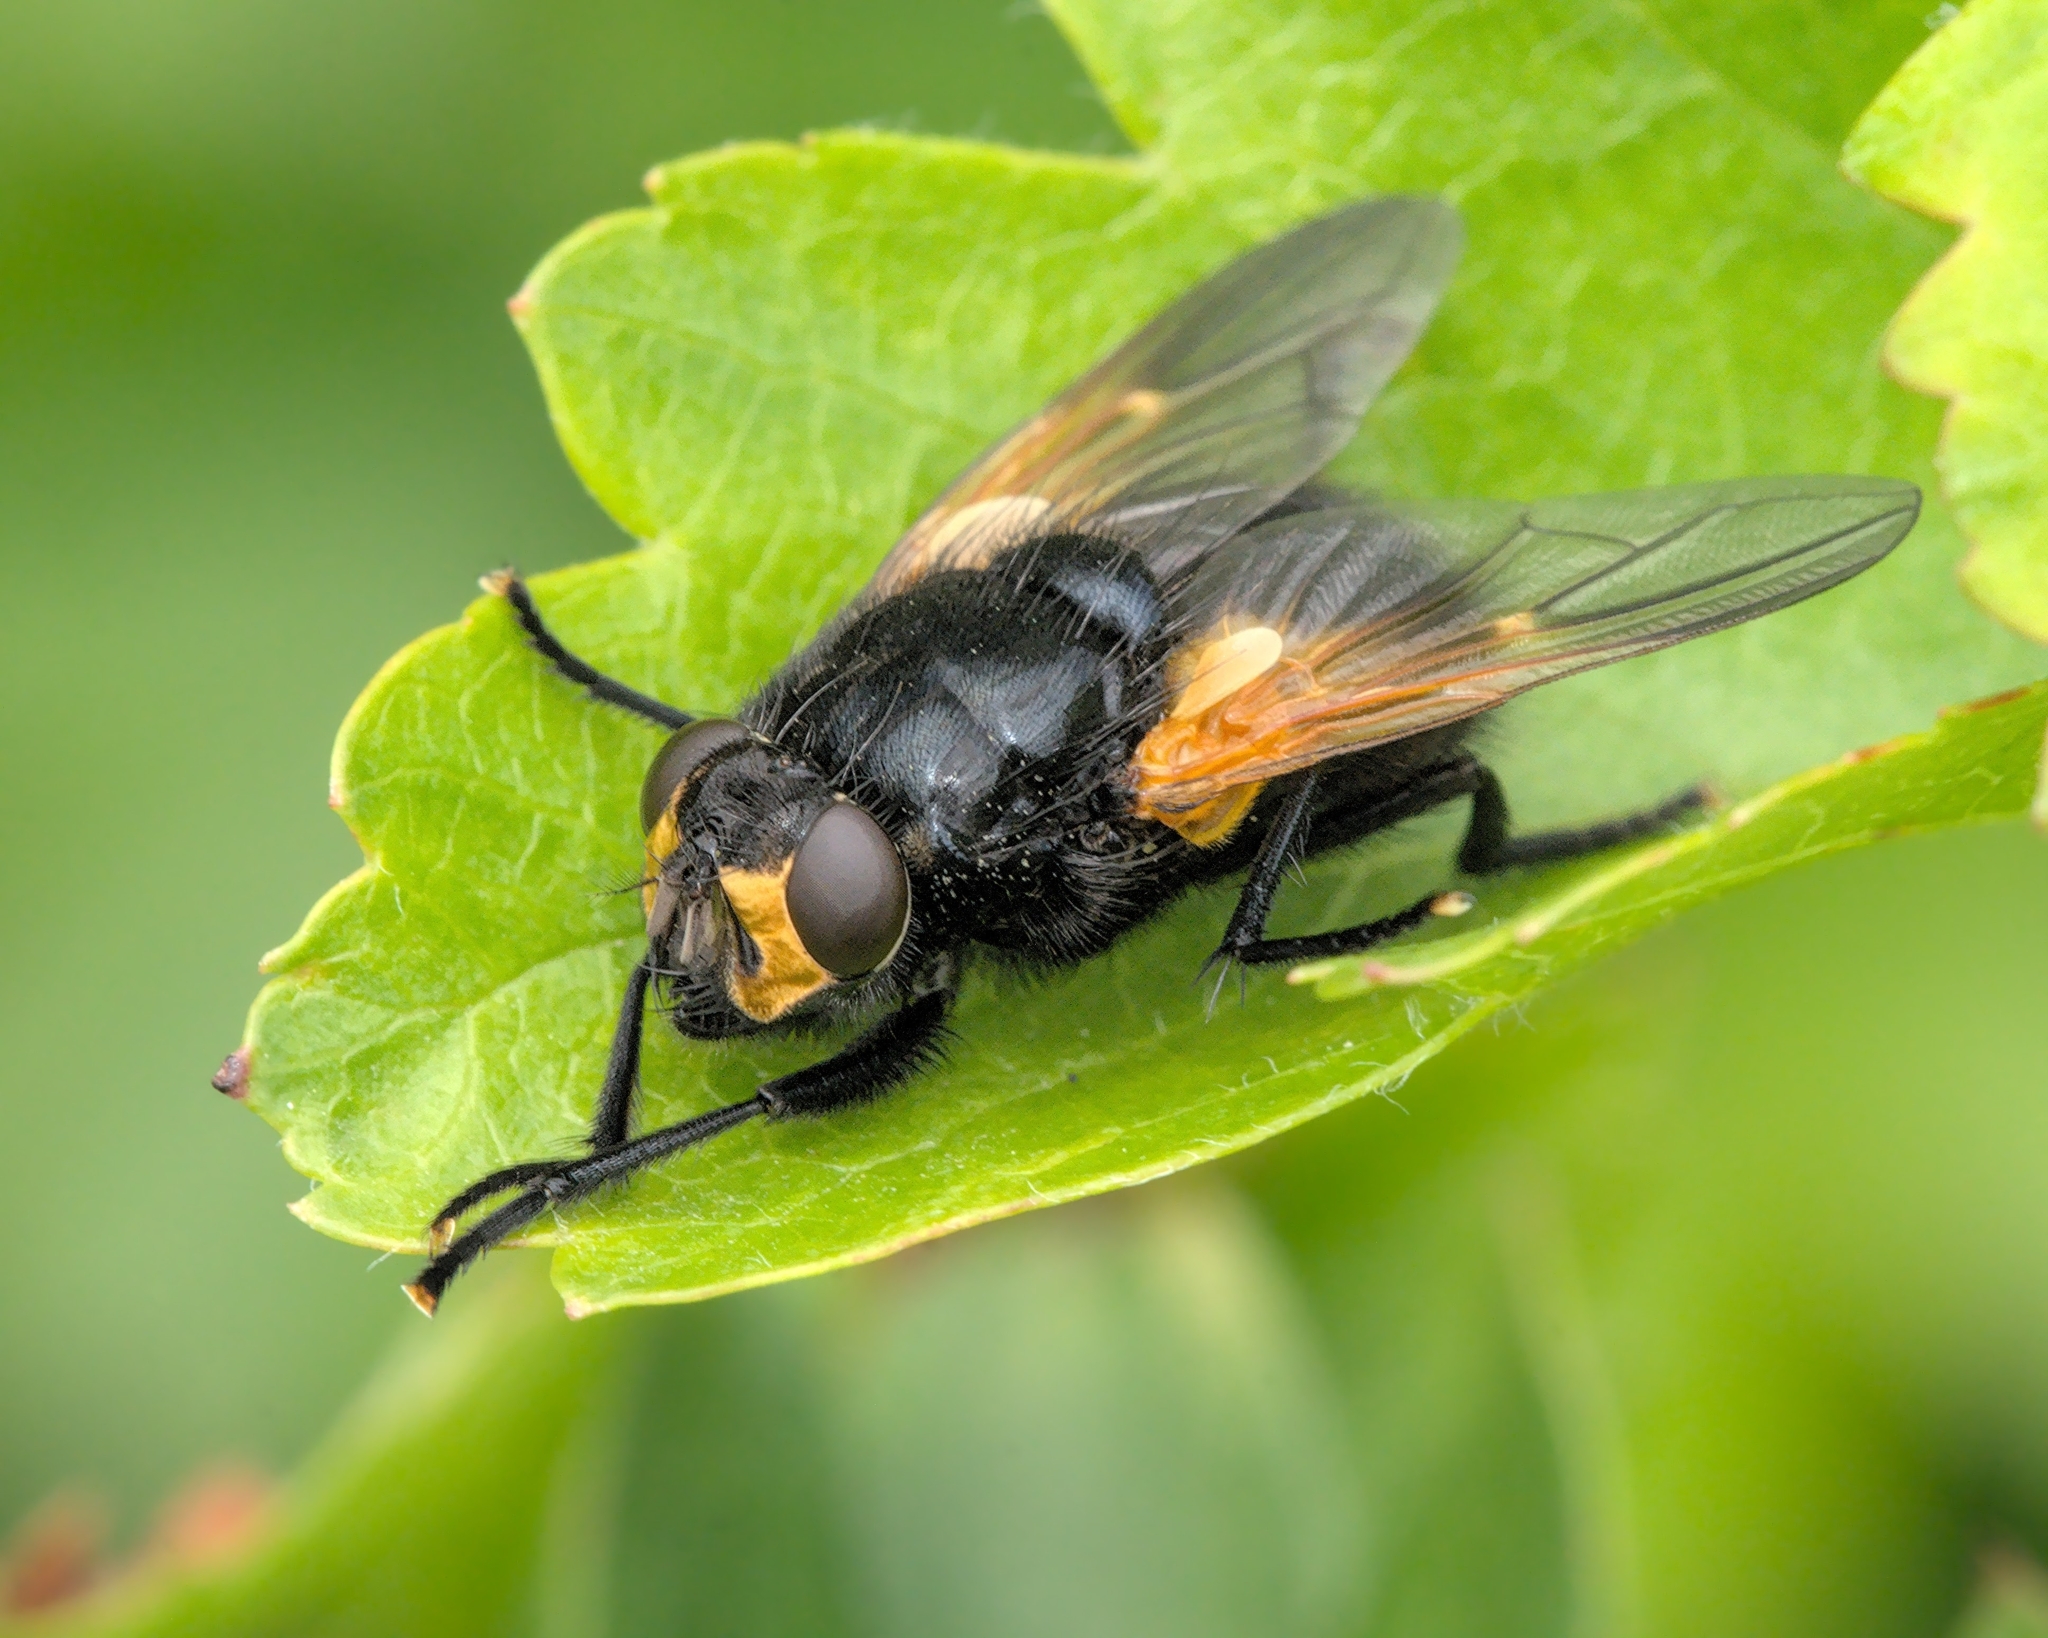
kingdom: Animalia
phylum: Arthropoda
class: Insecta
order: Diptera
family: Muscidae
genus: Mesembrina
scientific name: Mesembrina meridiana
